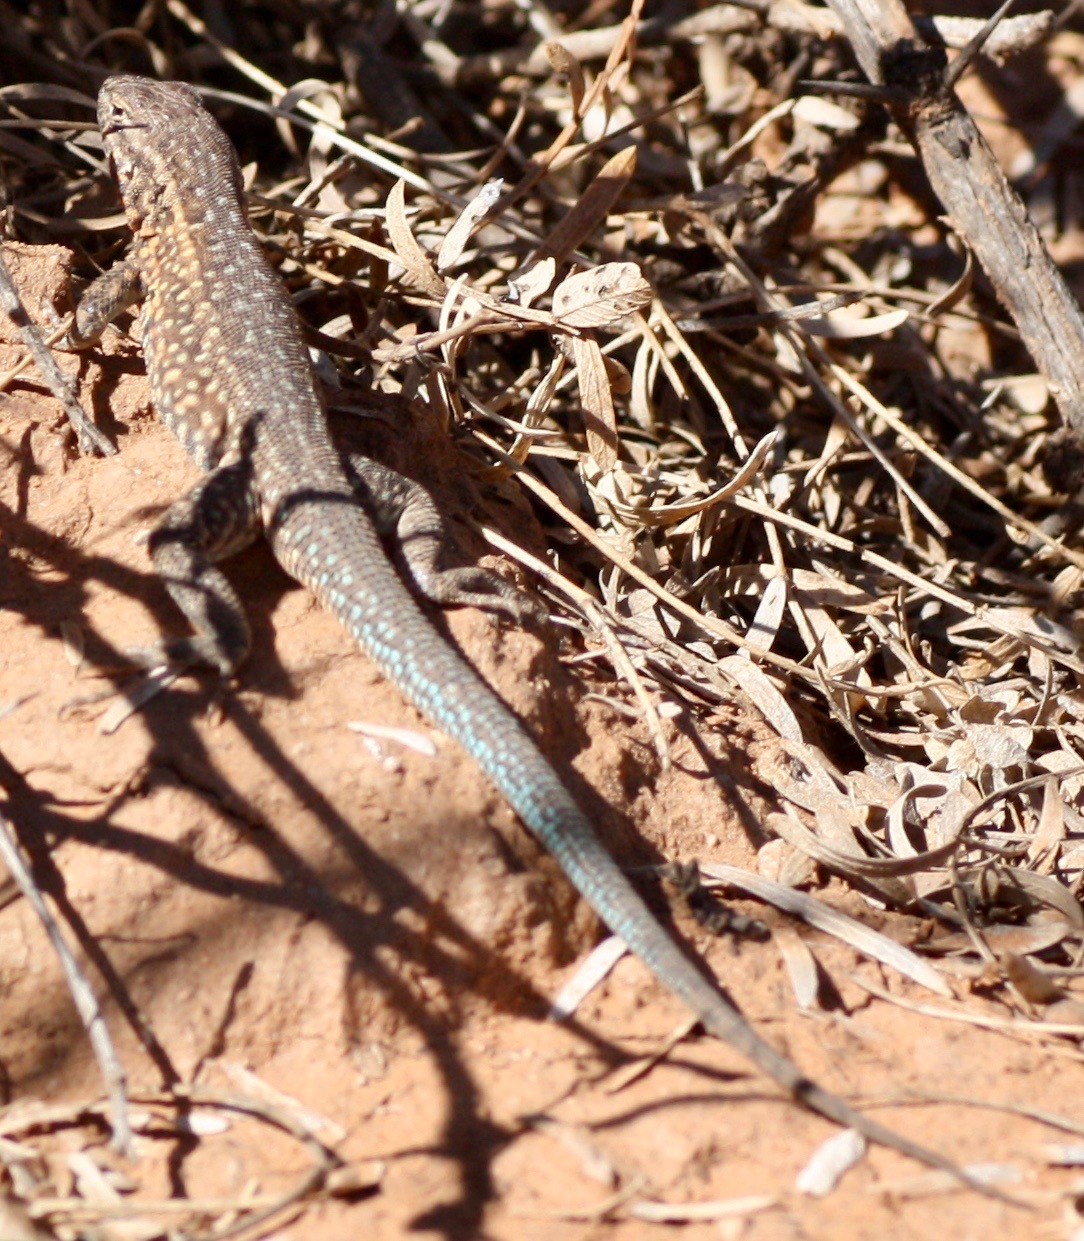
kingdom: Animalia
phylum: Chordata
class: Squamata
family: Phrynosomatidae
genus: Uta
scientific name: Uta stansburiana
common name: Side-blotched lizard
